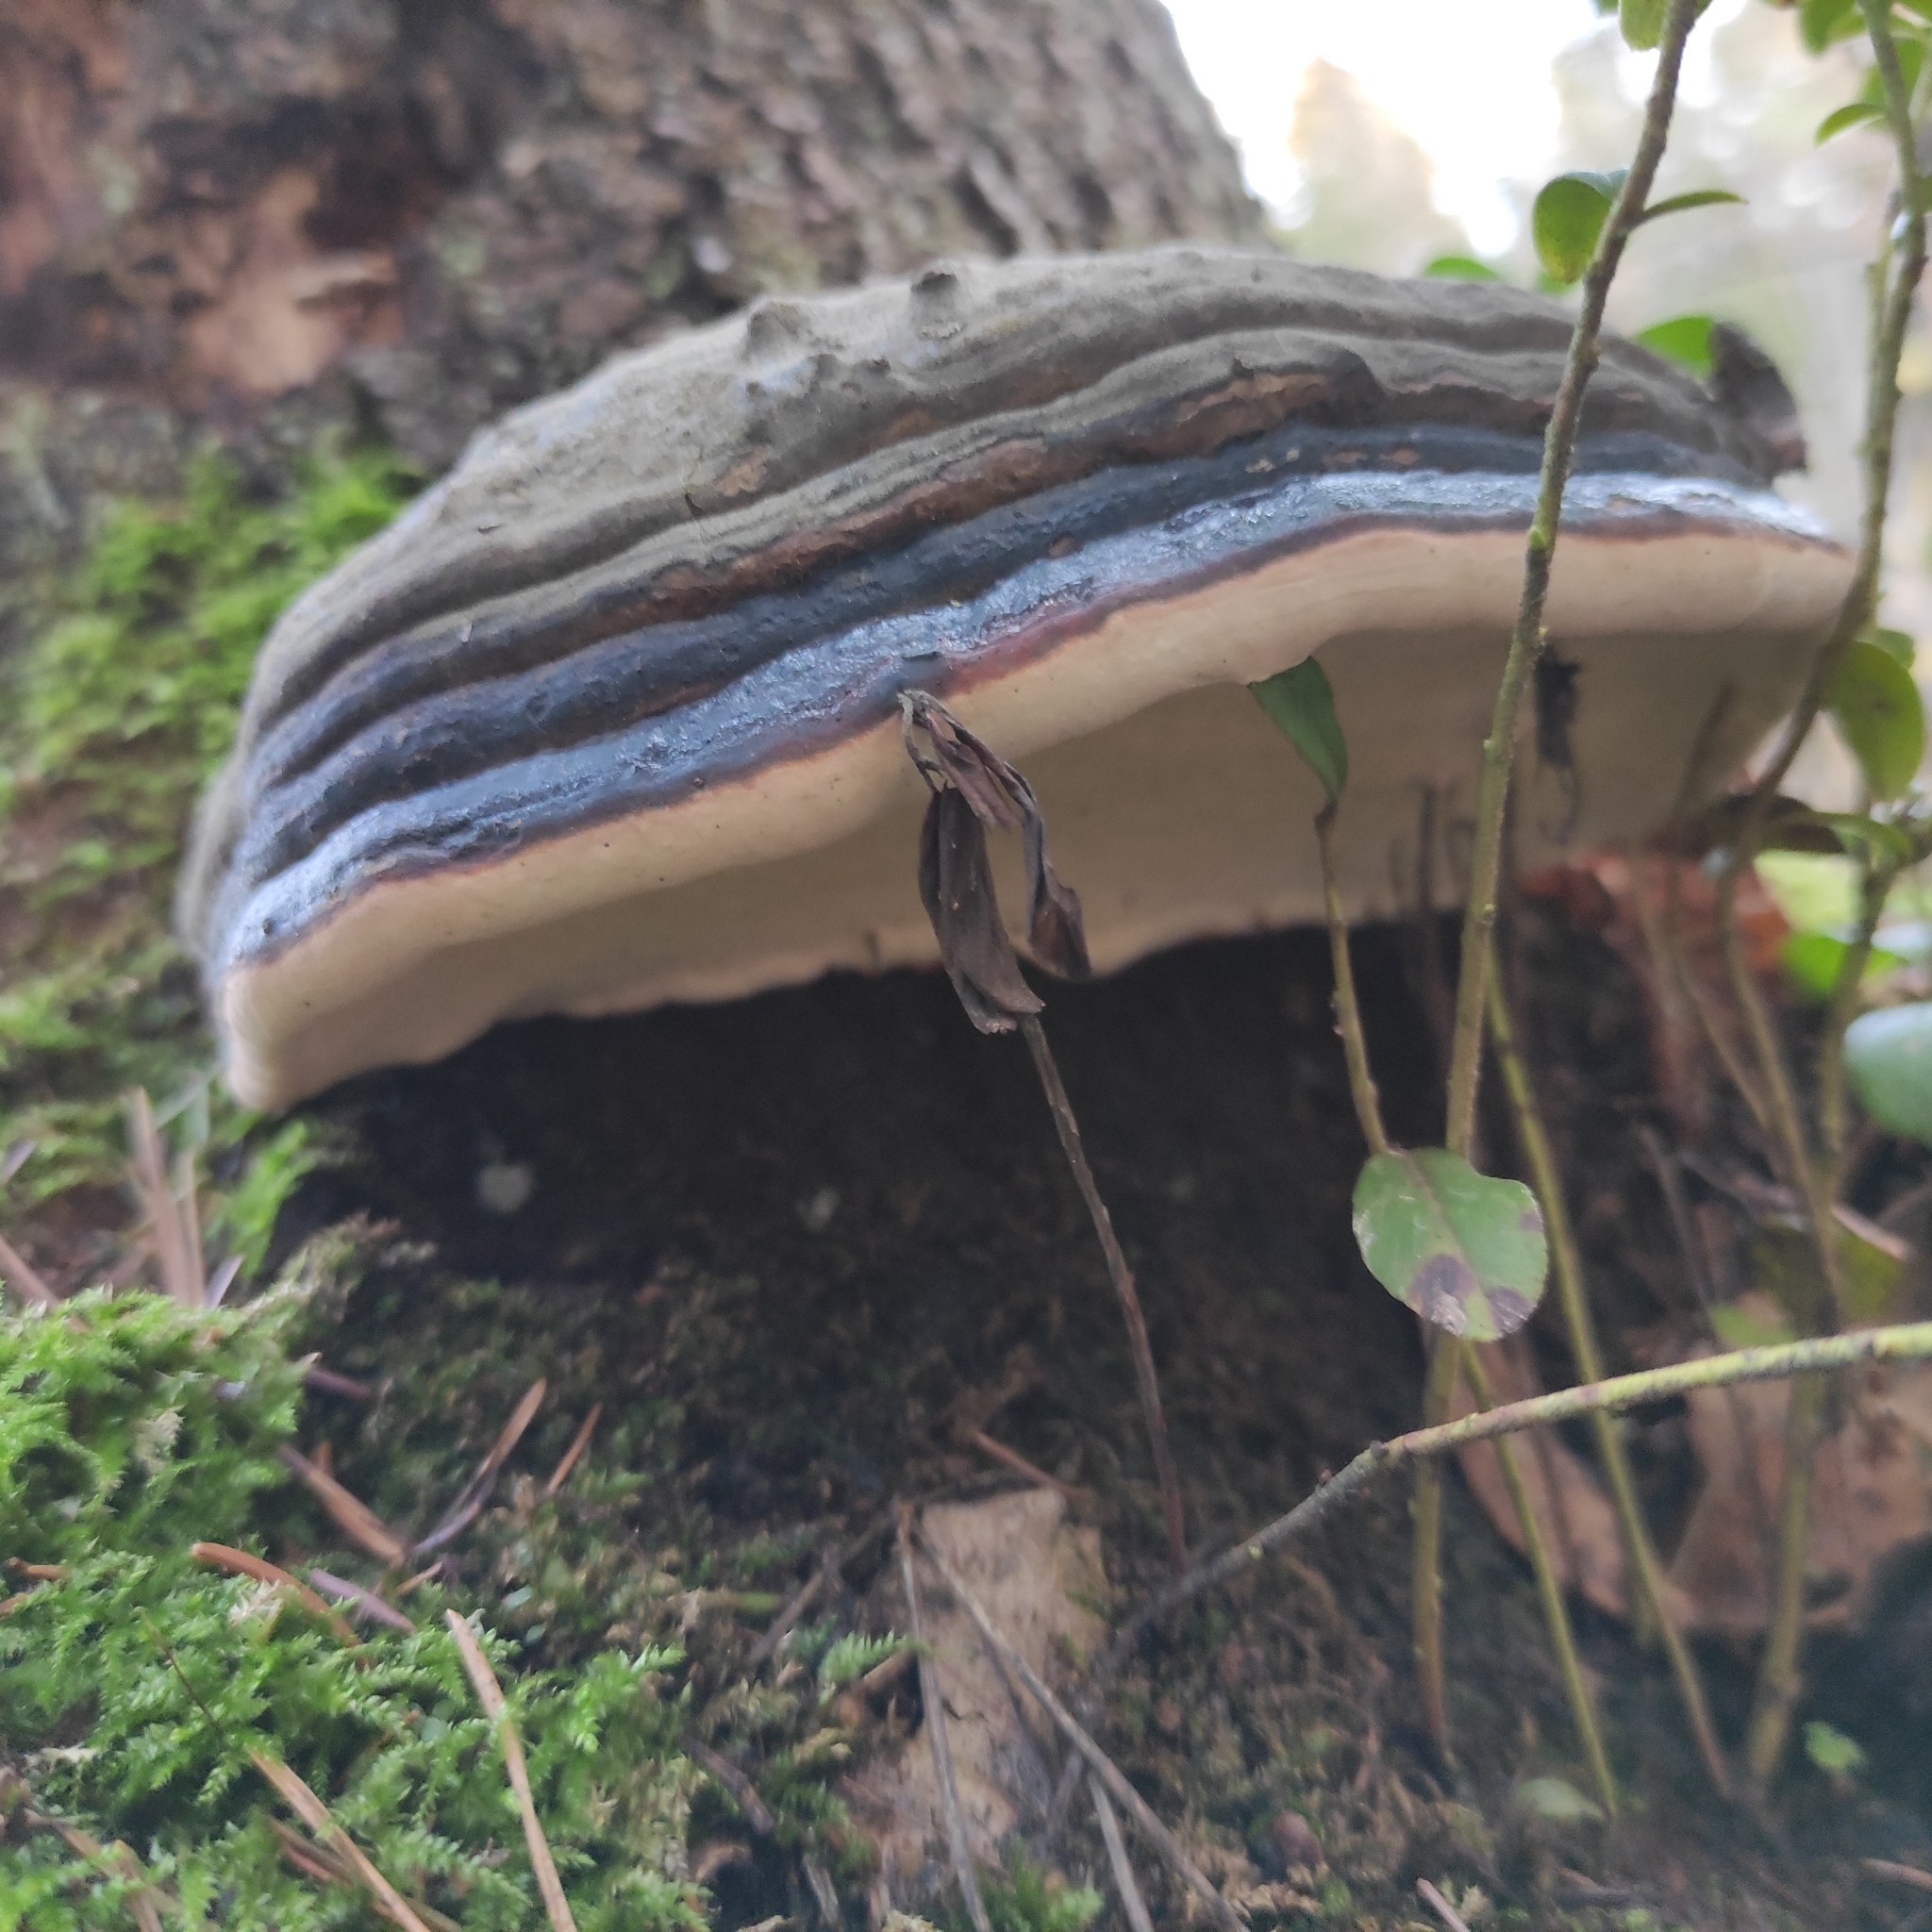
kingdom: Fungi
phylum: Basidiomycota
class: Agaricomycetes
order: Polyporales
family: Fomitopsidaceae
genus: Fomitopsis
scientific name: Fomitopsis pinicola
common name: Red-belted bracket
